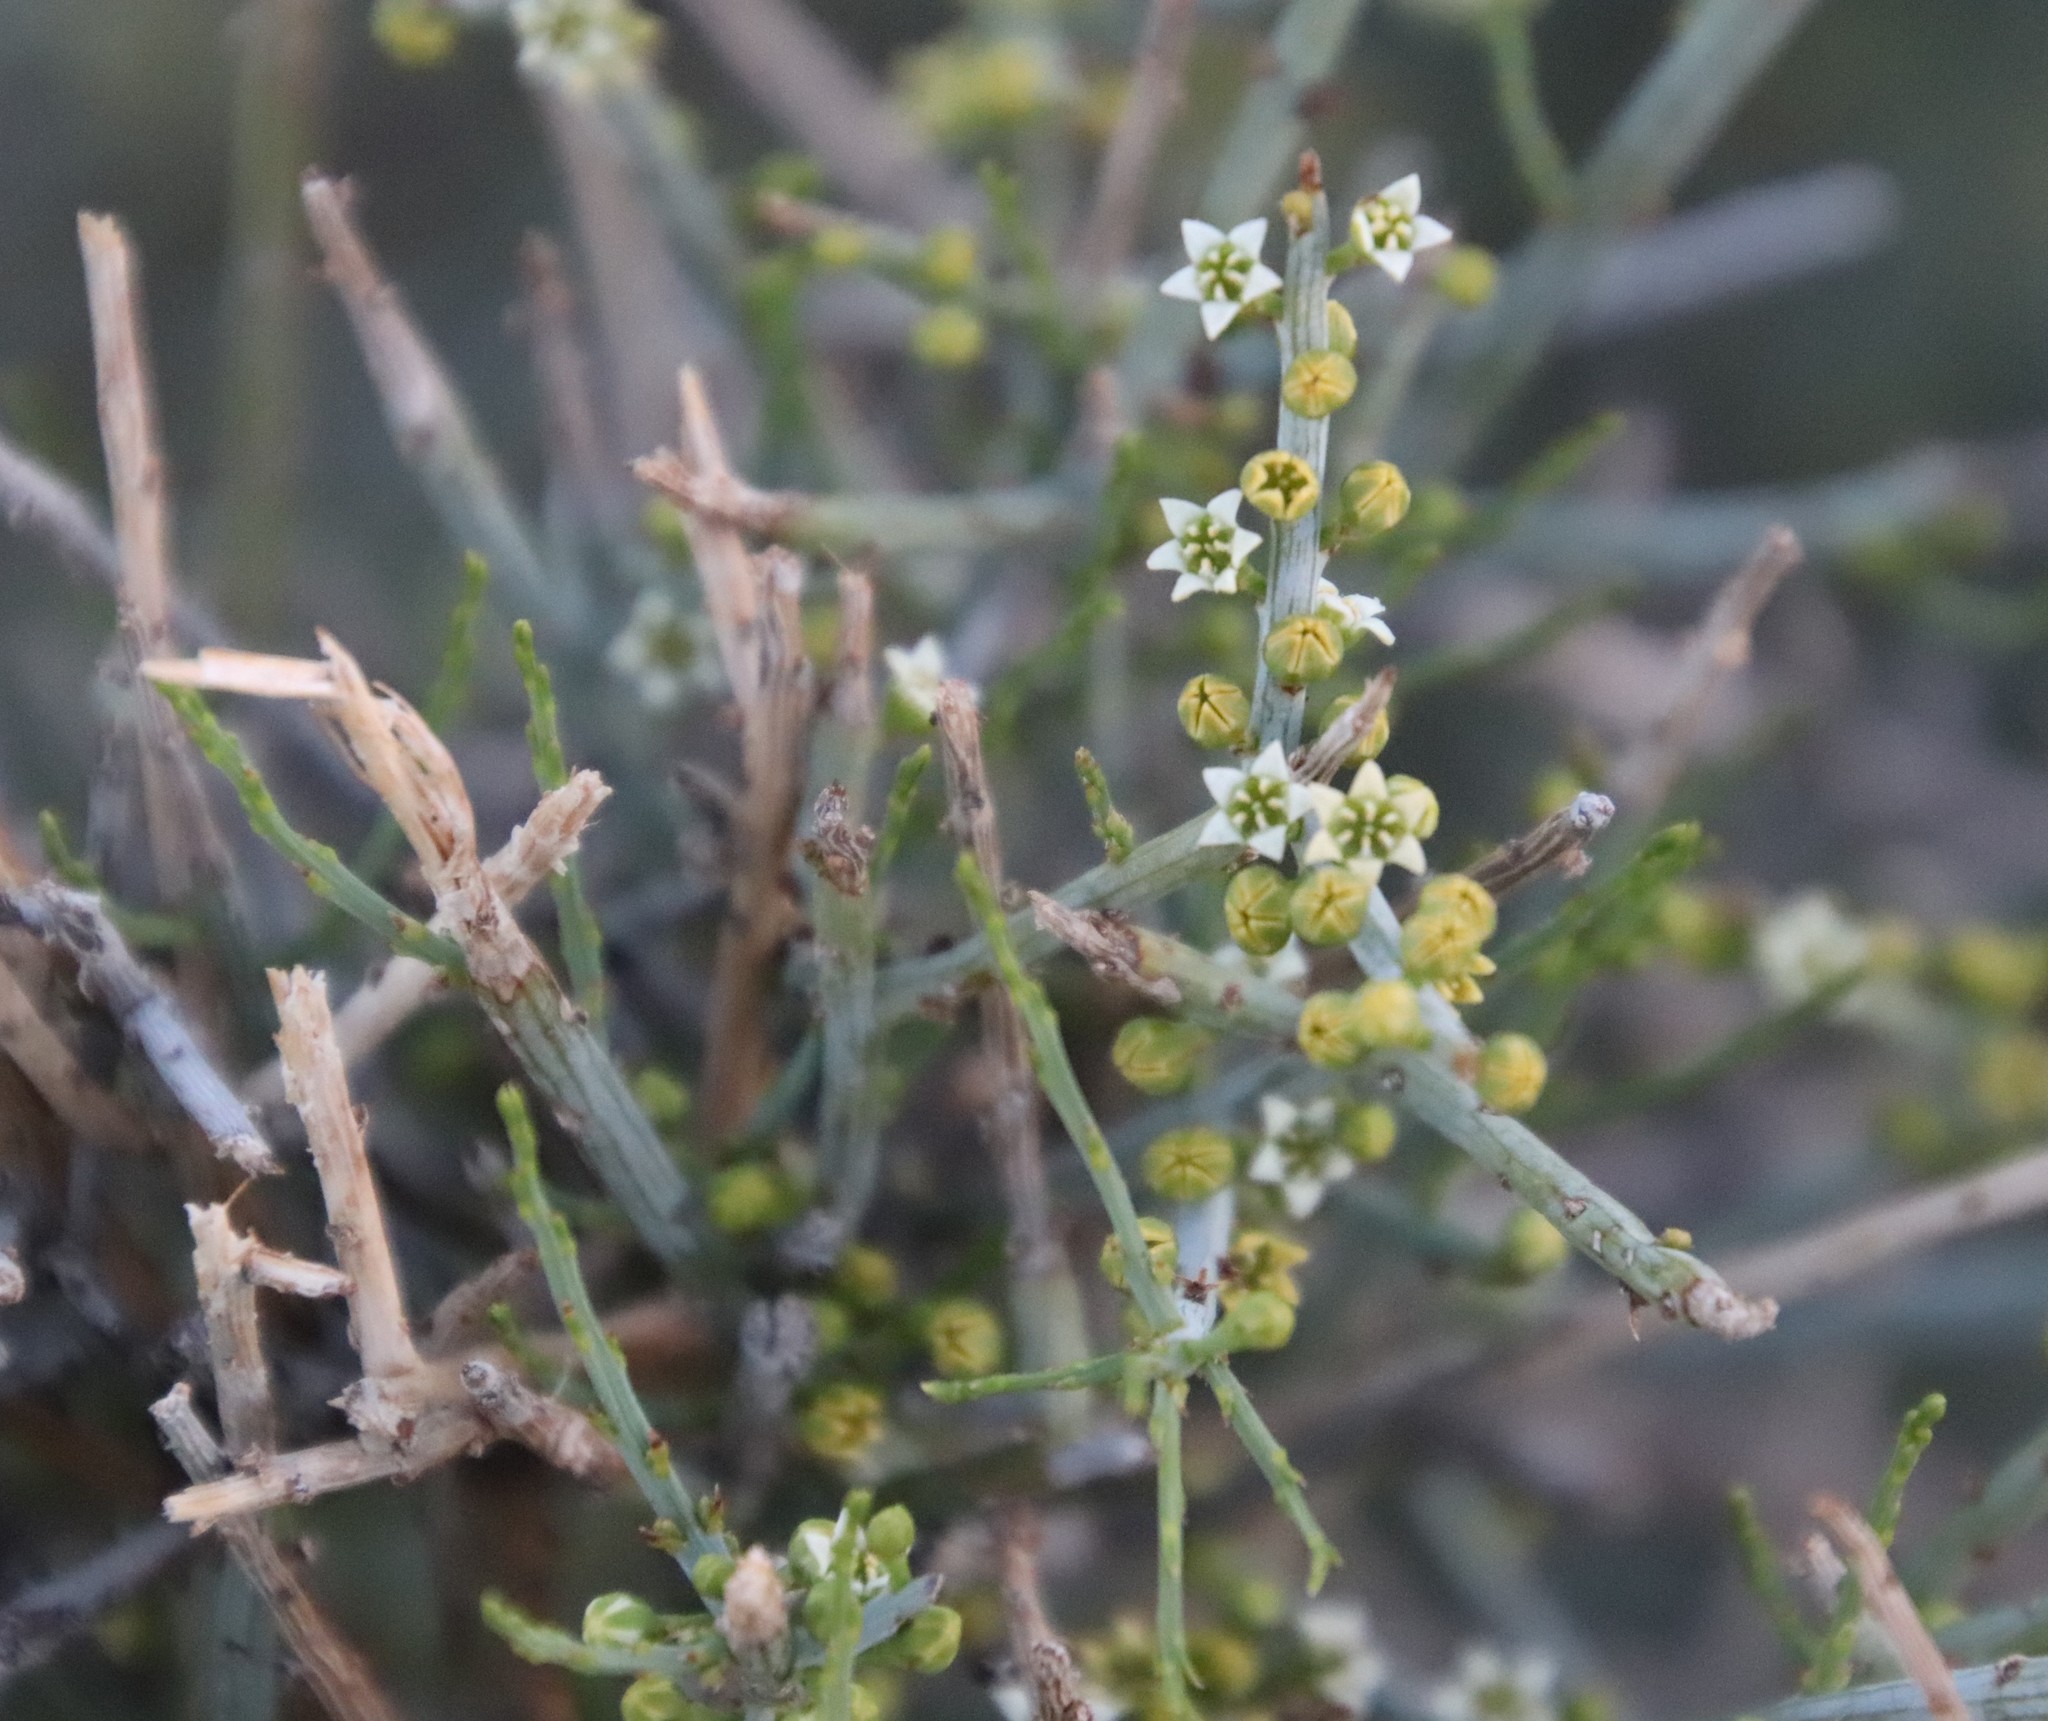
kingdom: Plantae
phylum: Tracheophyta
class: Magnoliopsida
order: Santalales
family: Thesiaceae
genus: Lacomucinaea
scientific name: Lacomucinaea lineata
